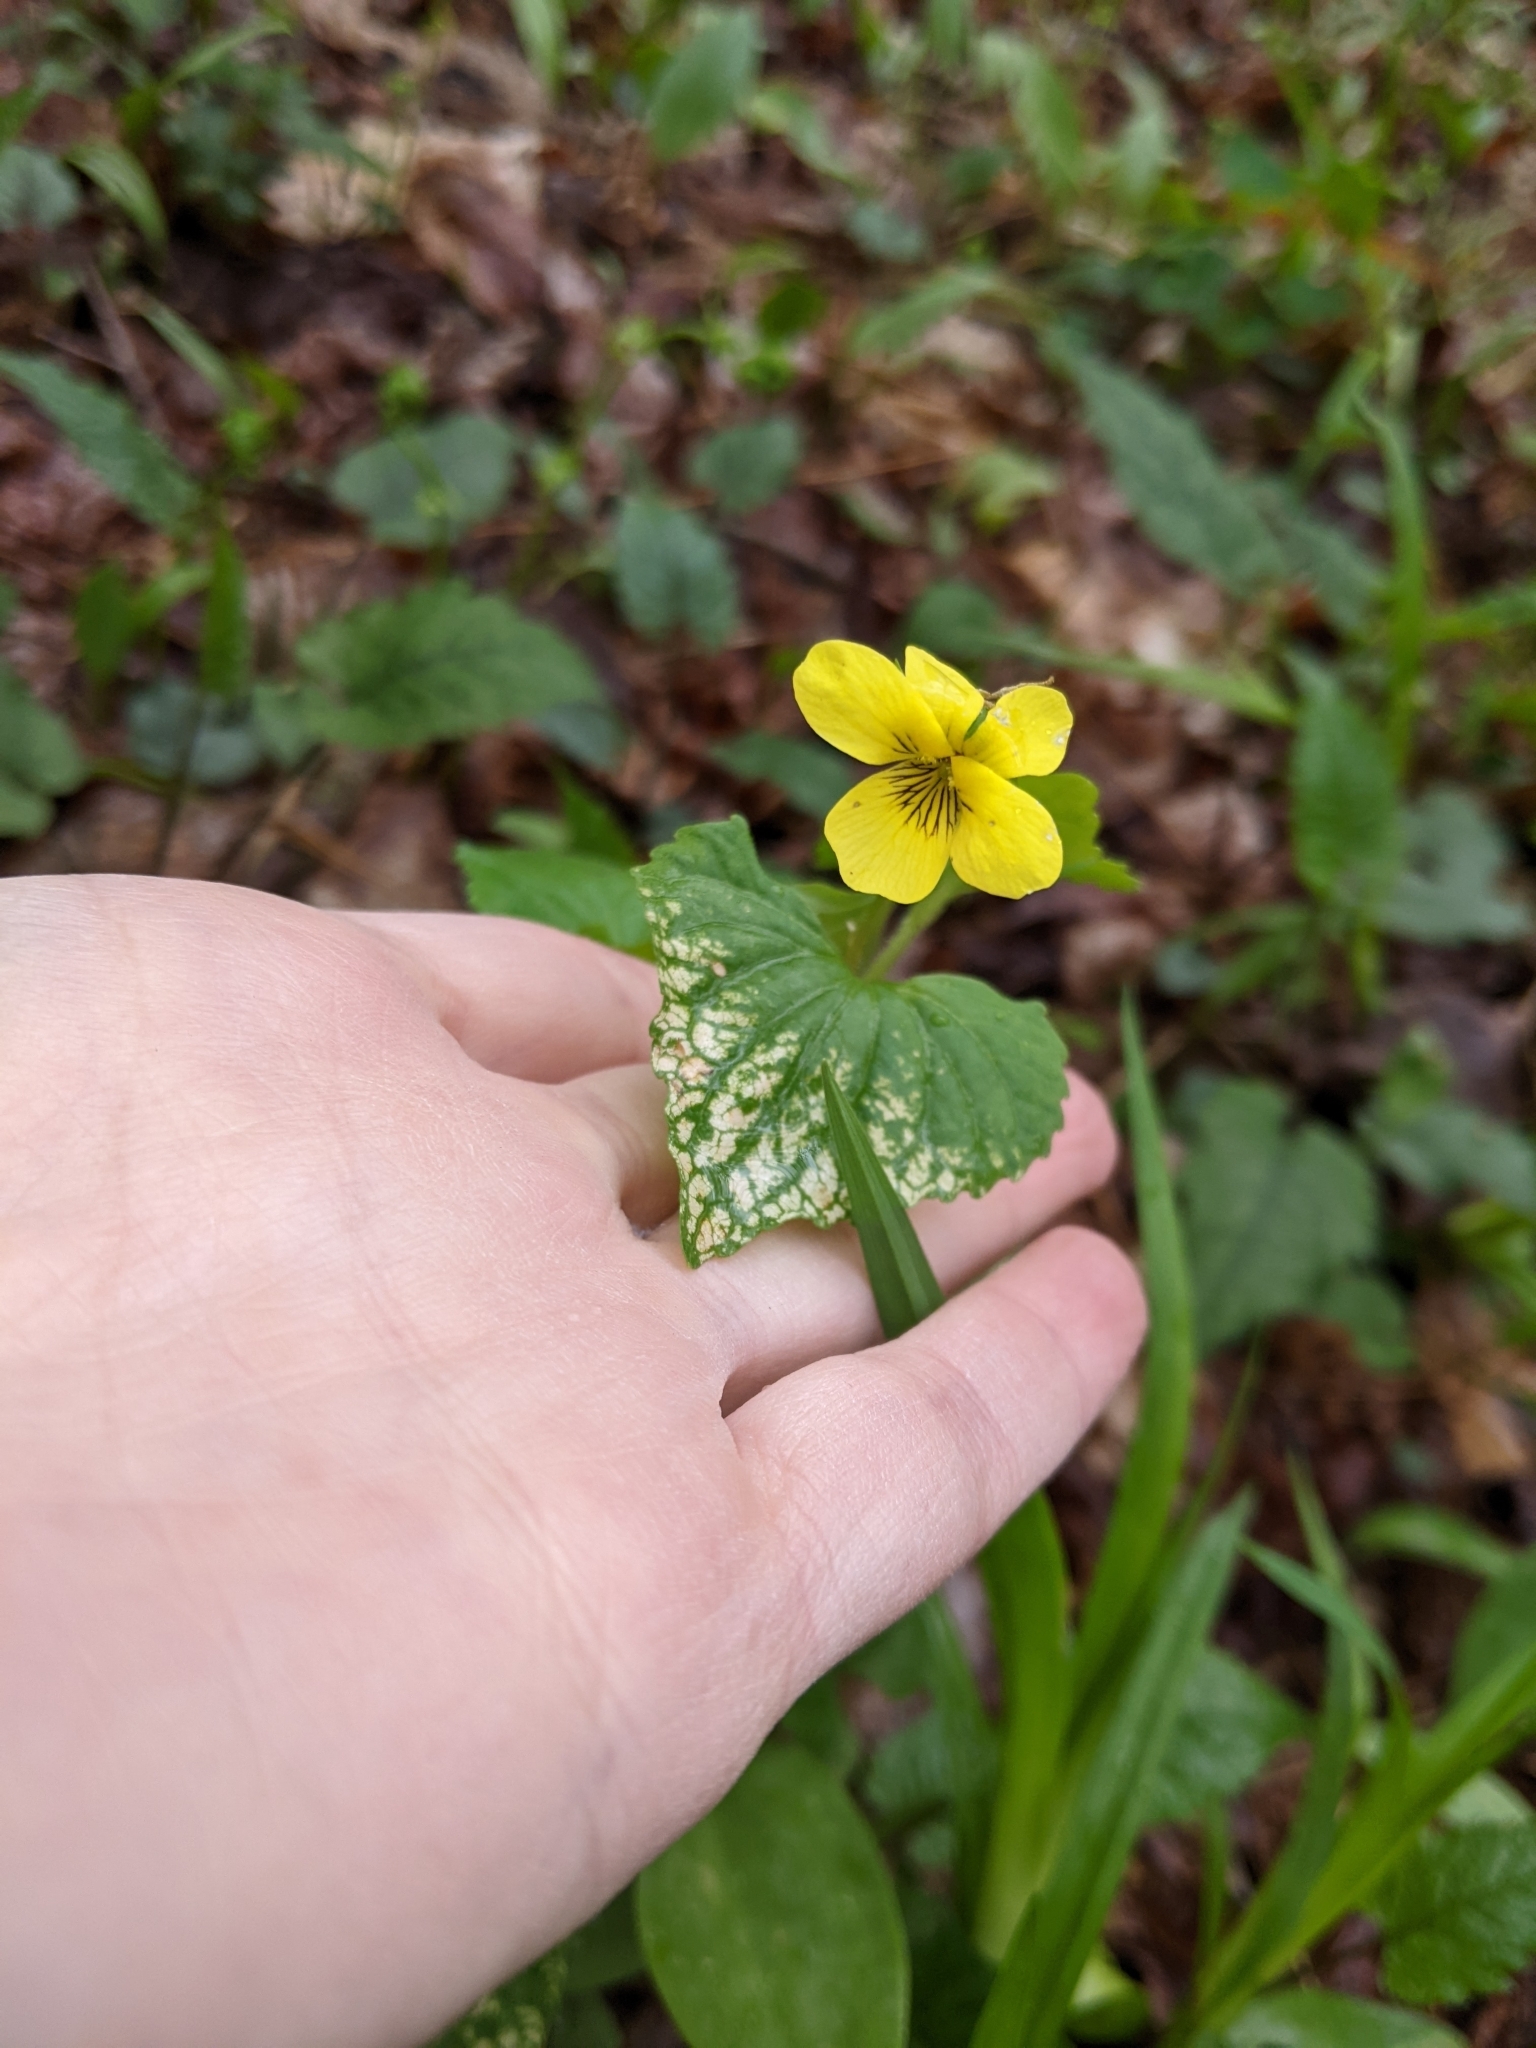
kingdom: Plantae
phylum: Tracheophyta
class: Magnoliopsida
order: Malpighiales
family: Violaceae
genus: Viola
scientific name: Viola eriocarpa
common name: Smooth yellow violet
